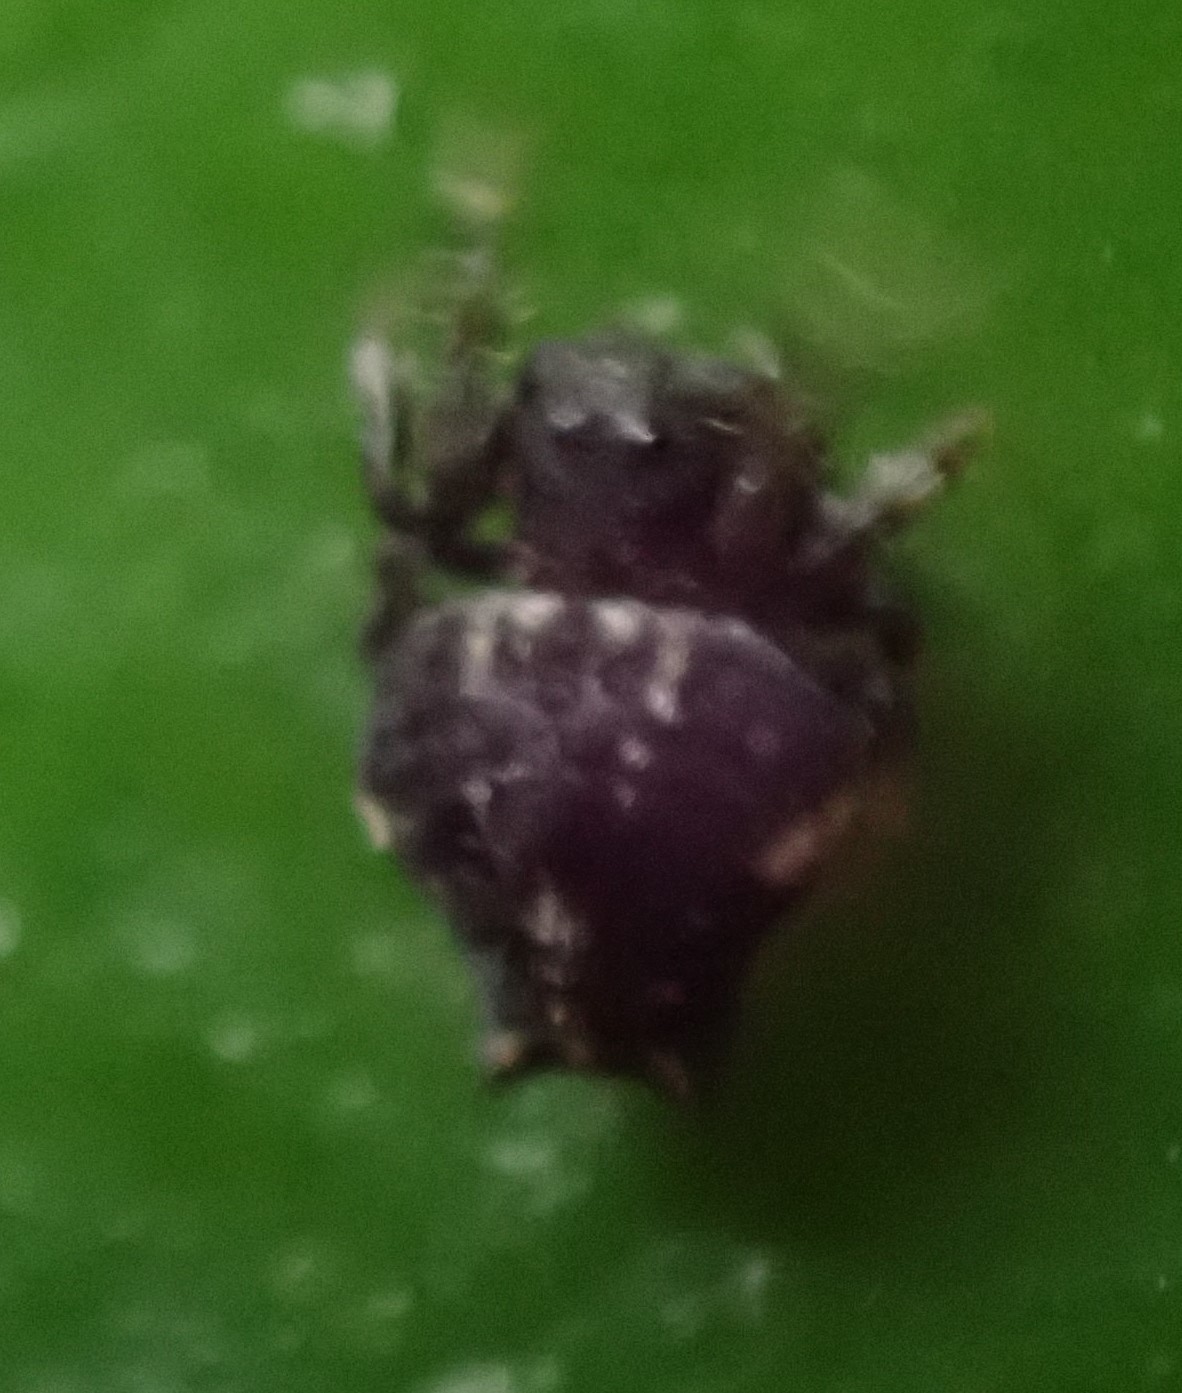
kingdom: Animalia
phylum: Arthropoda
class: Arachnida
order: Araneae
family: Arkyidae
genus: Arkys
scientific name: Arkys alticephala
